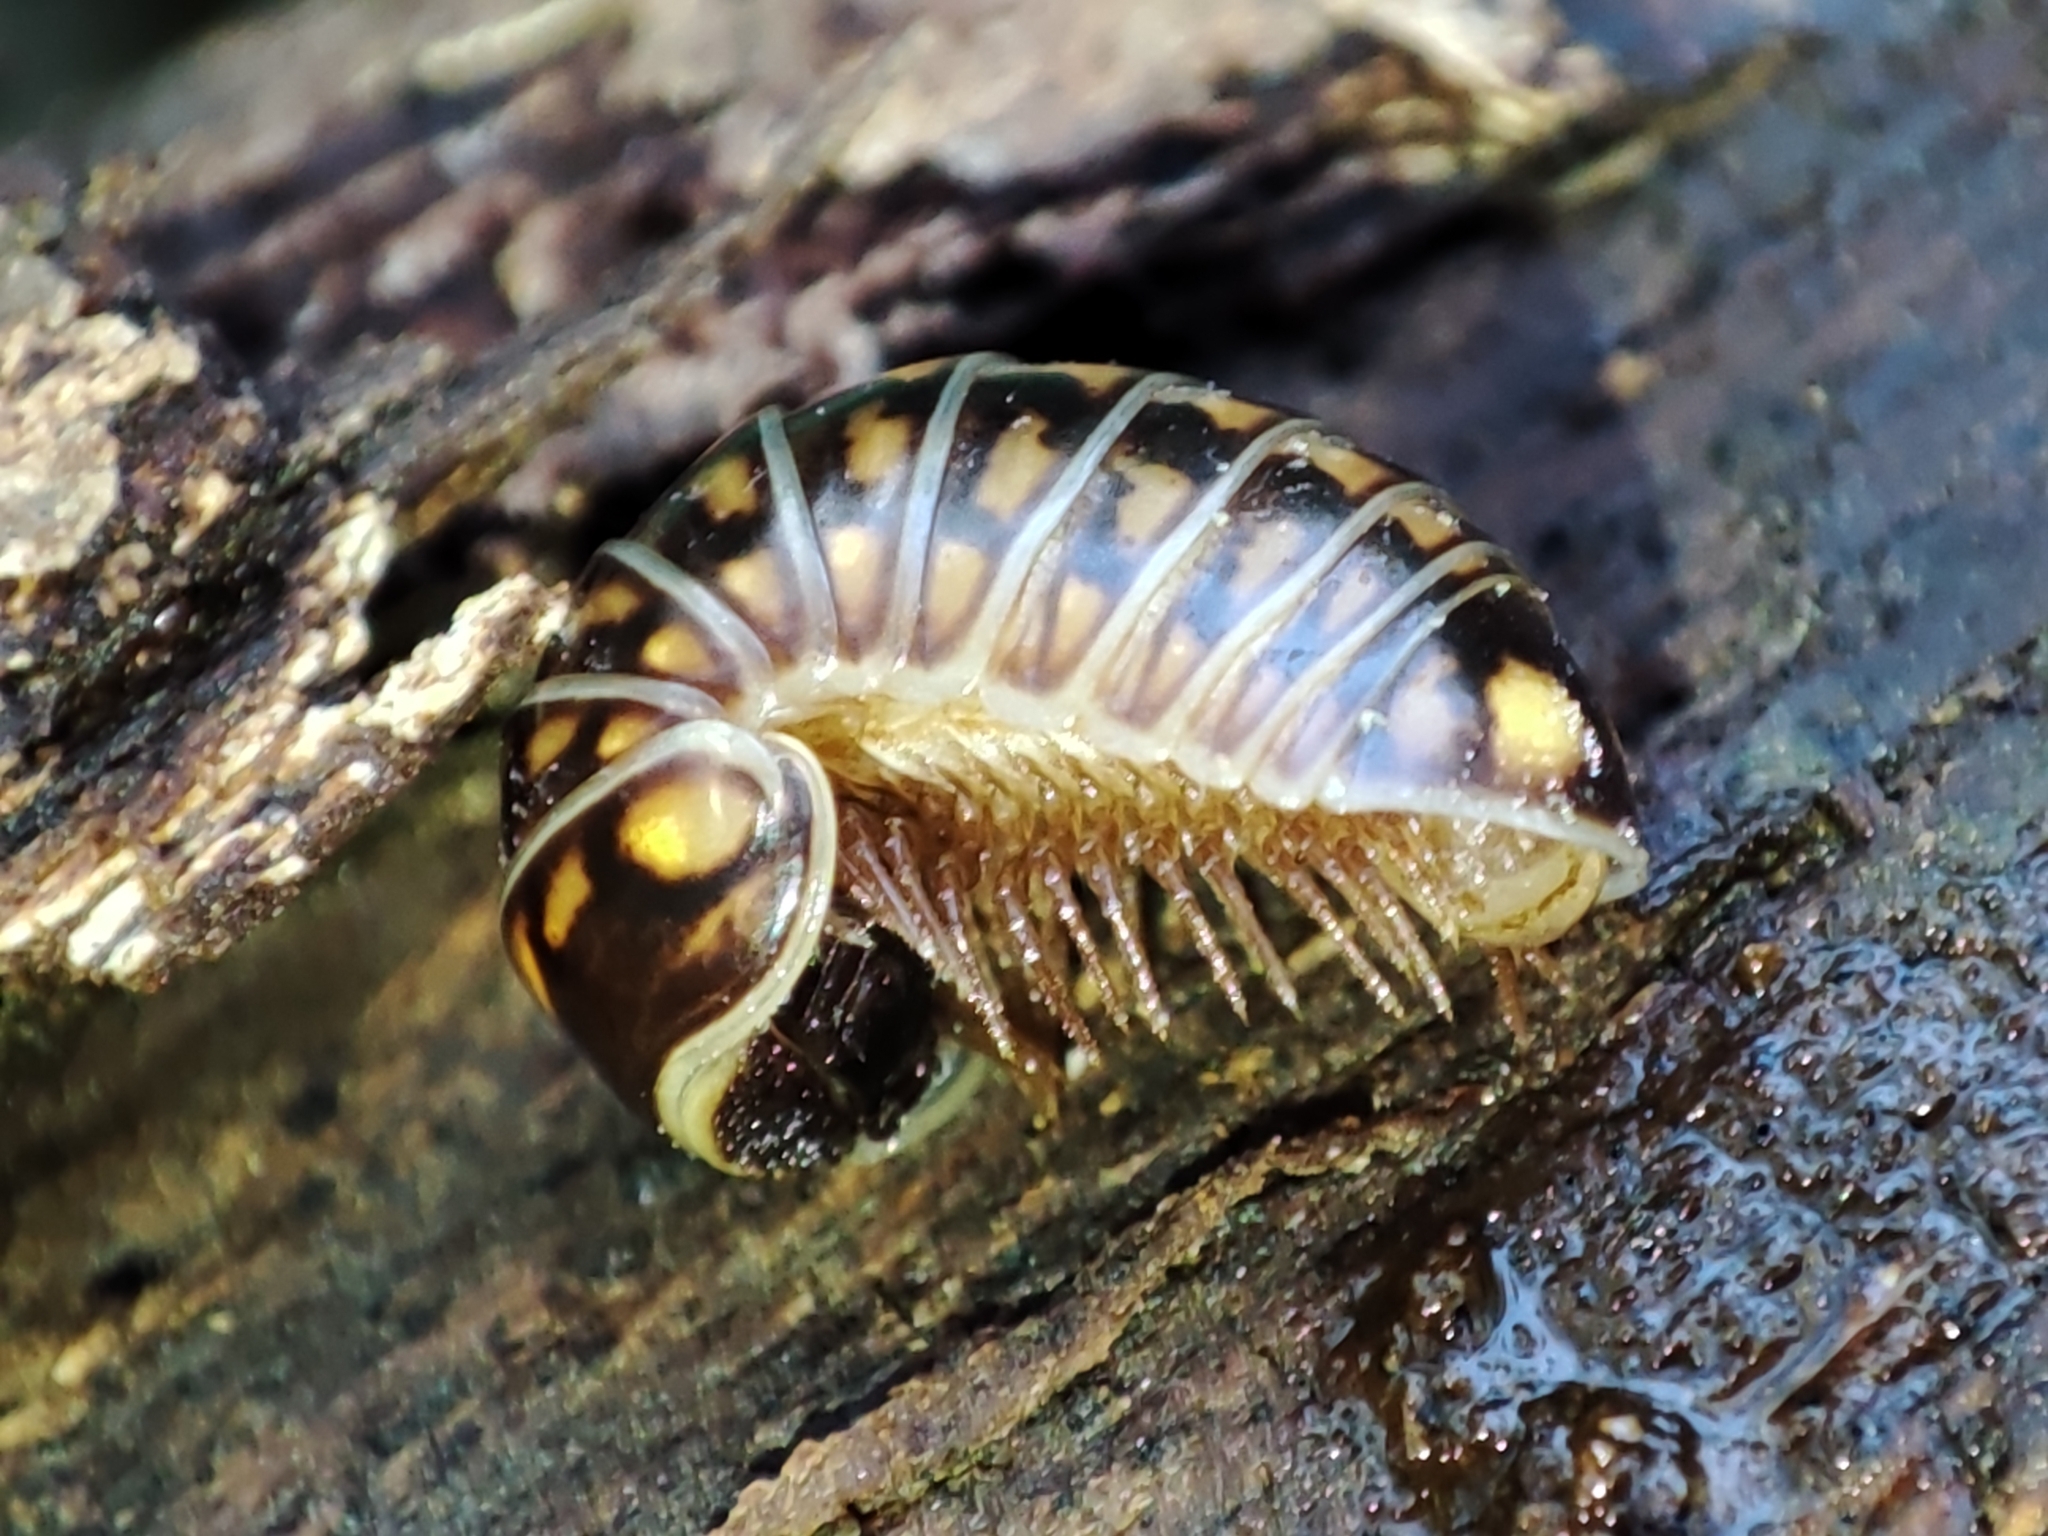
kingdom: Animalia
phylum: Arthropoda
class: Diplopoda
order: Glomerida
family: Glomeridae
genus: Glomeris
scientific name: Glomeris hexasticha
